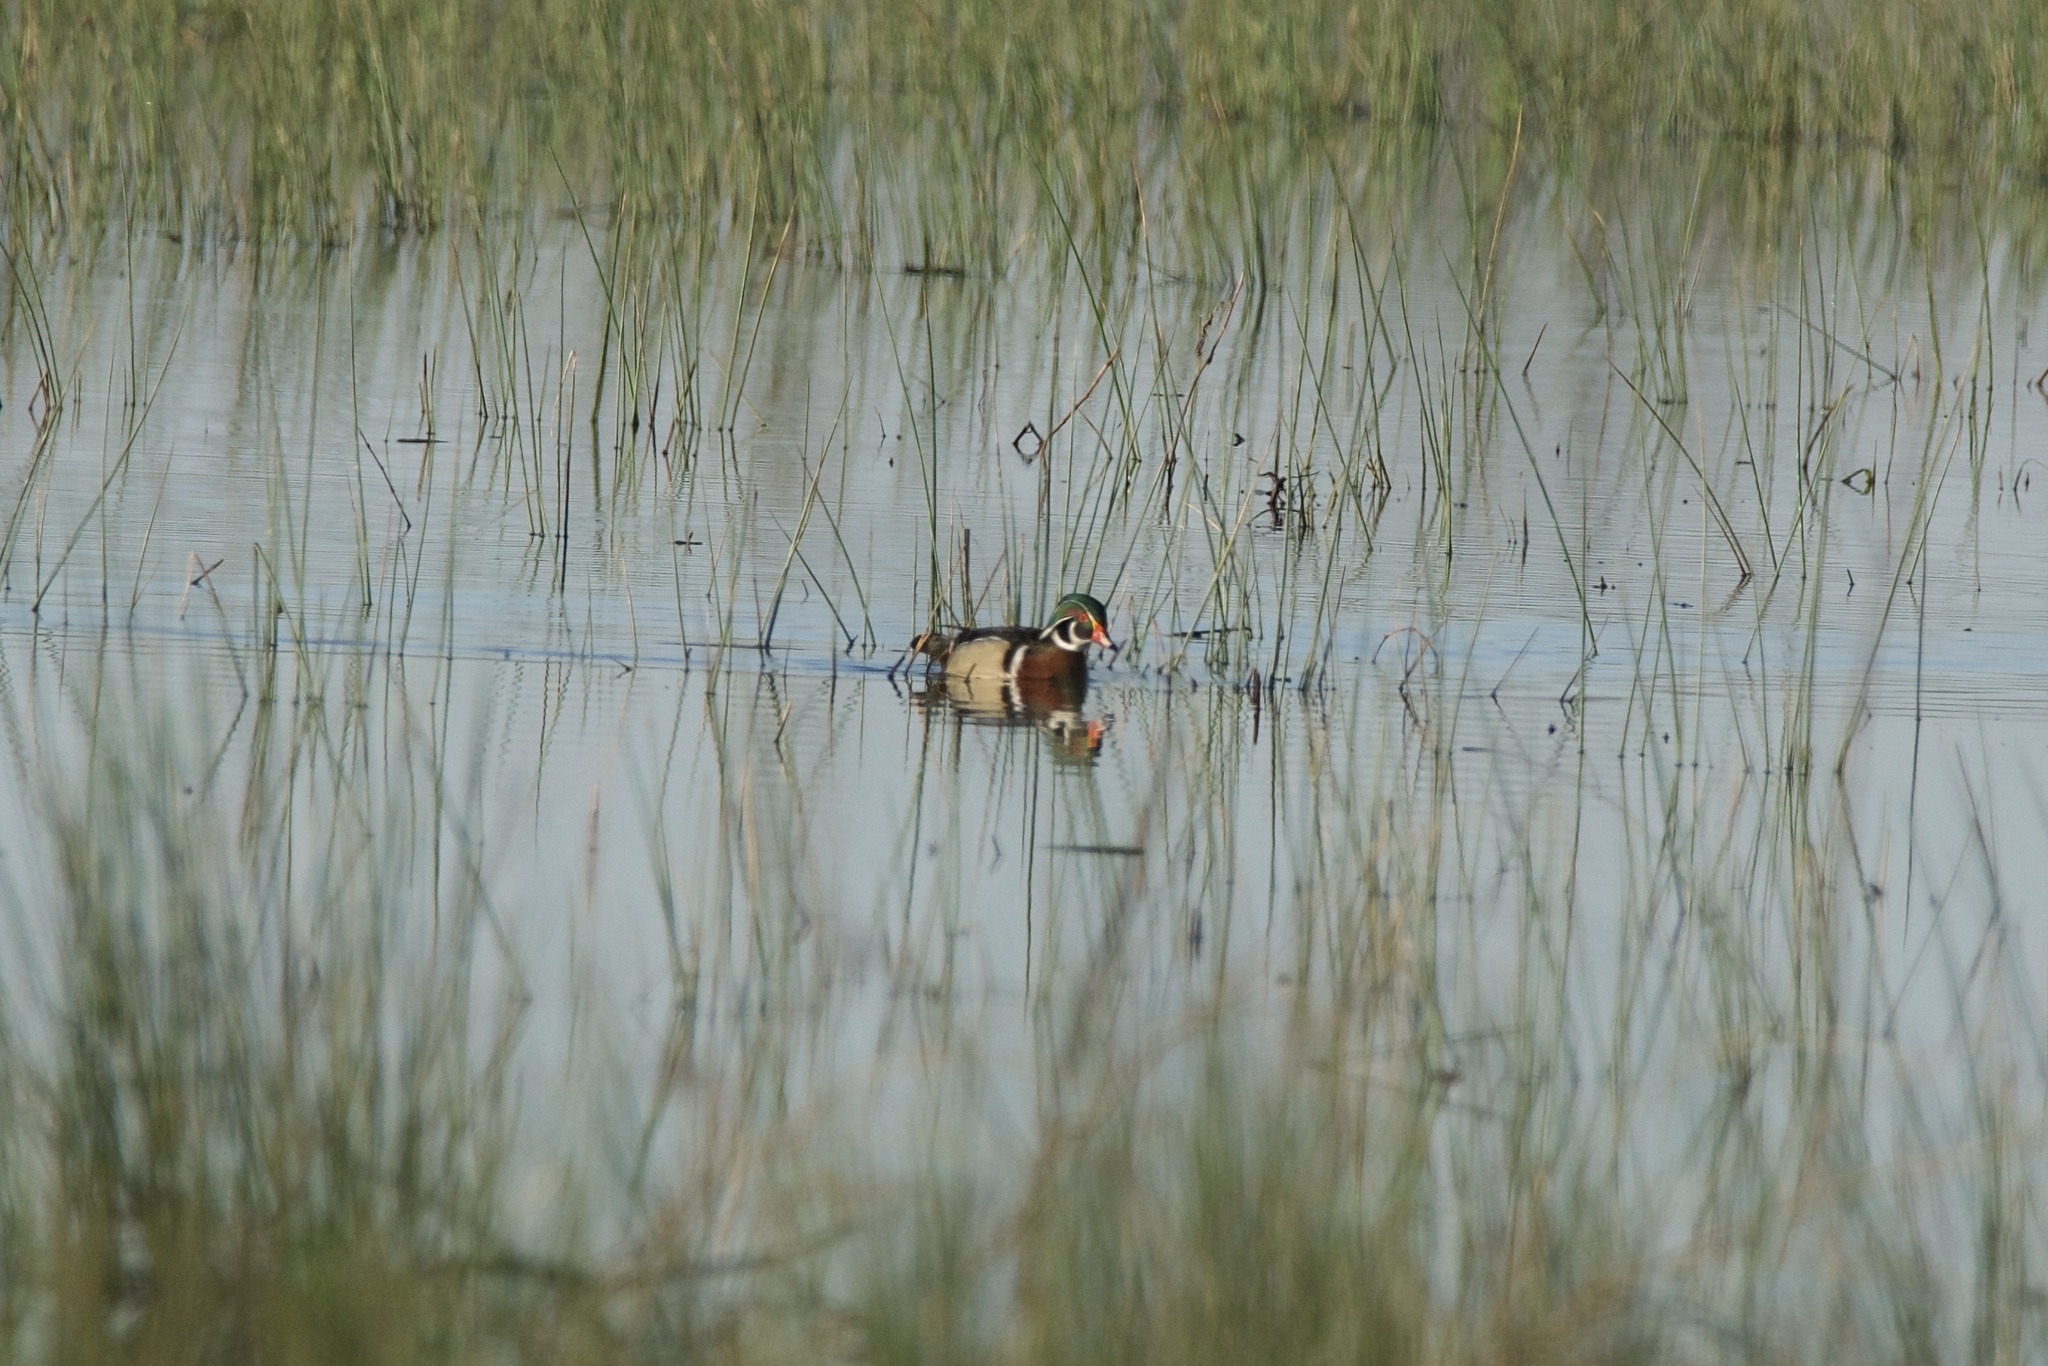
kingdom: Animalia
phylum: Chordata
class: Aves
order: Anseriformes
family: Anatidae
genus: Aix
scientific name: Aix sponsa
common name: Wood duck
